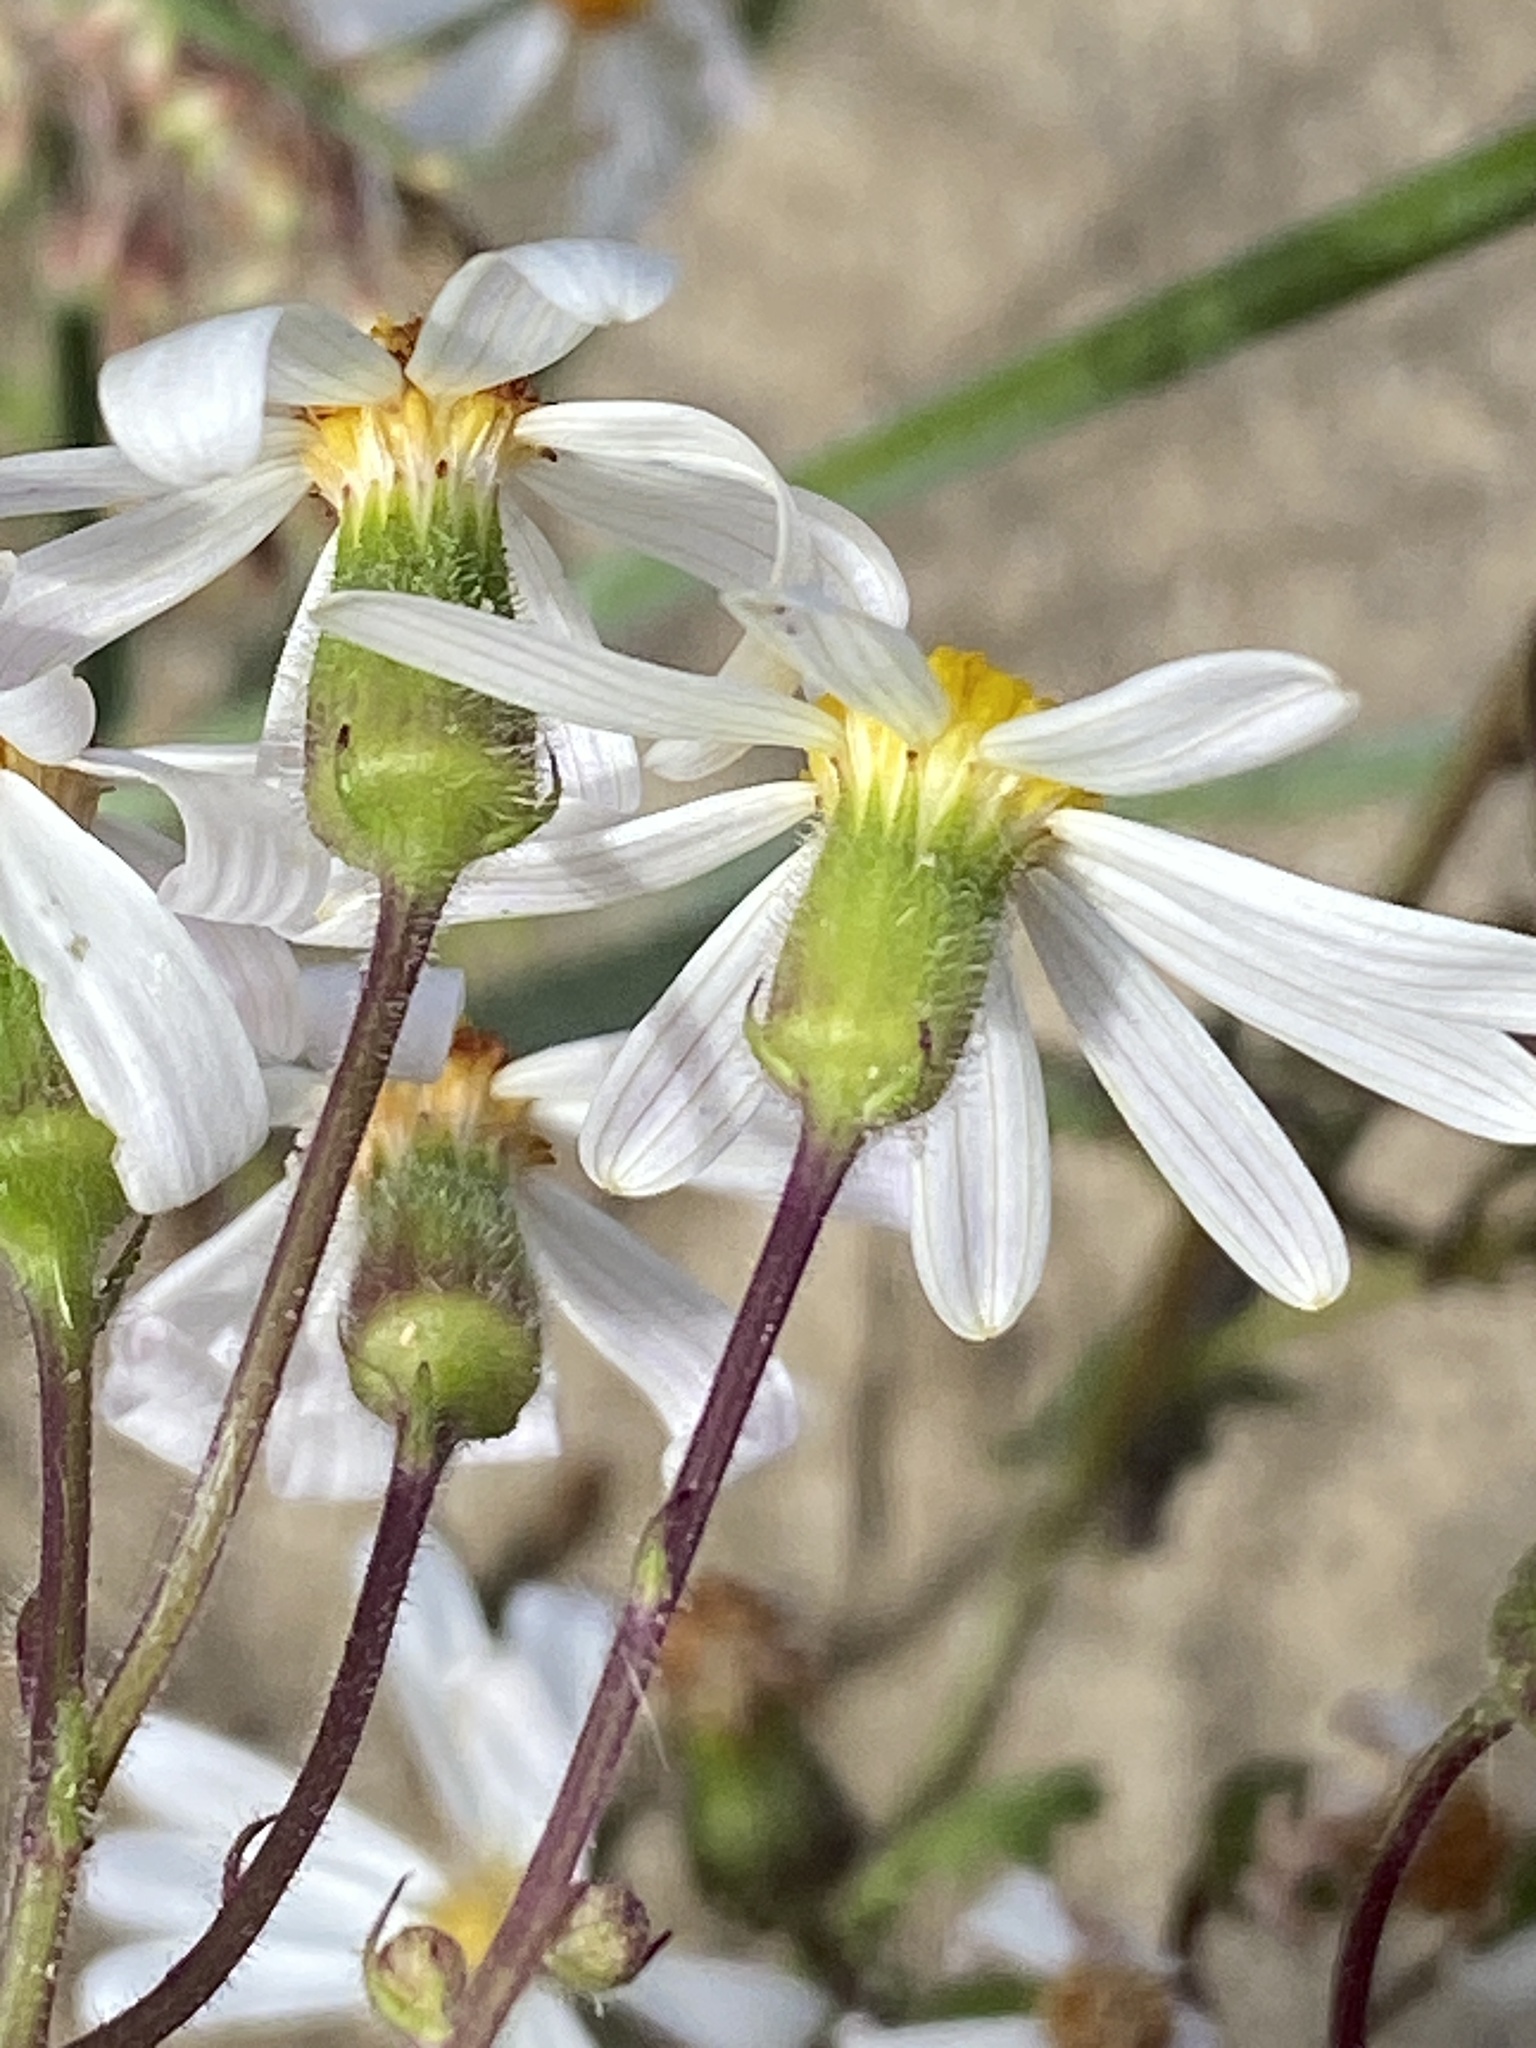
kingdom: Plantae
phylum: Tracheophyta
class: Magnoliopsida
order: Asterales
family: Asteraceae
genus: Senecio
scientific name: Senecio arenarius
